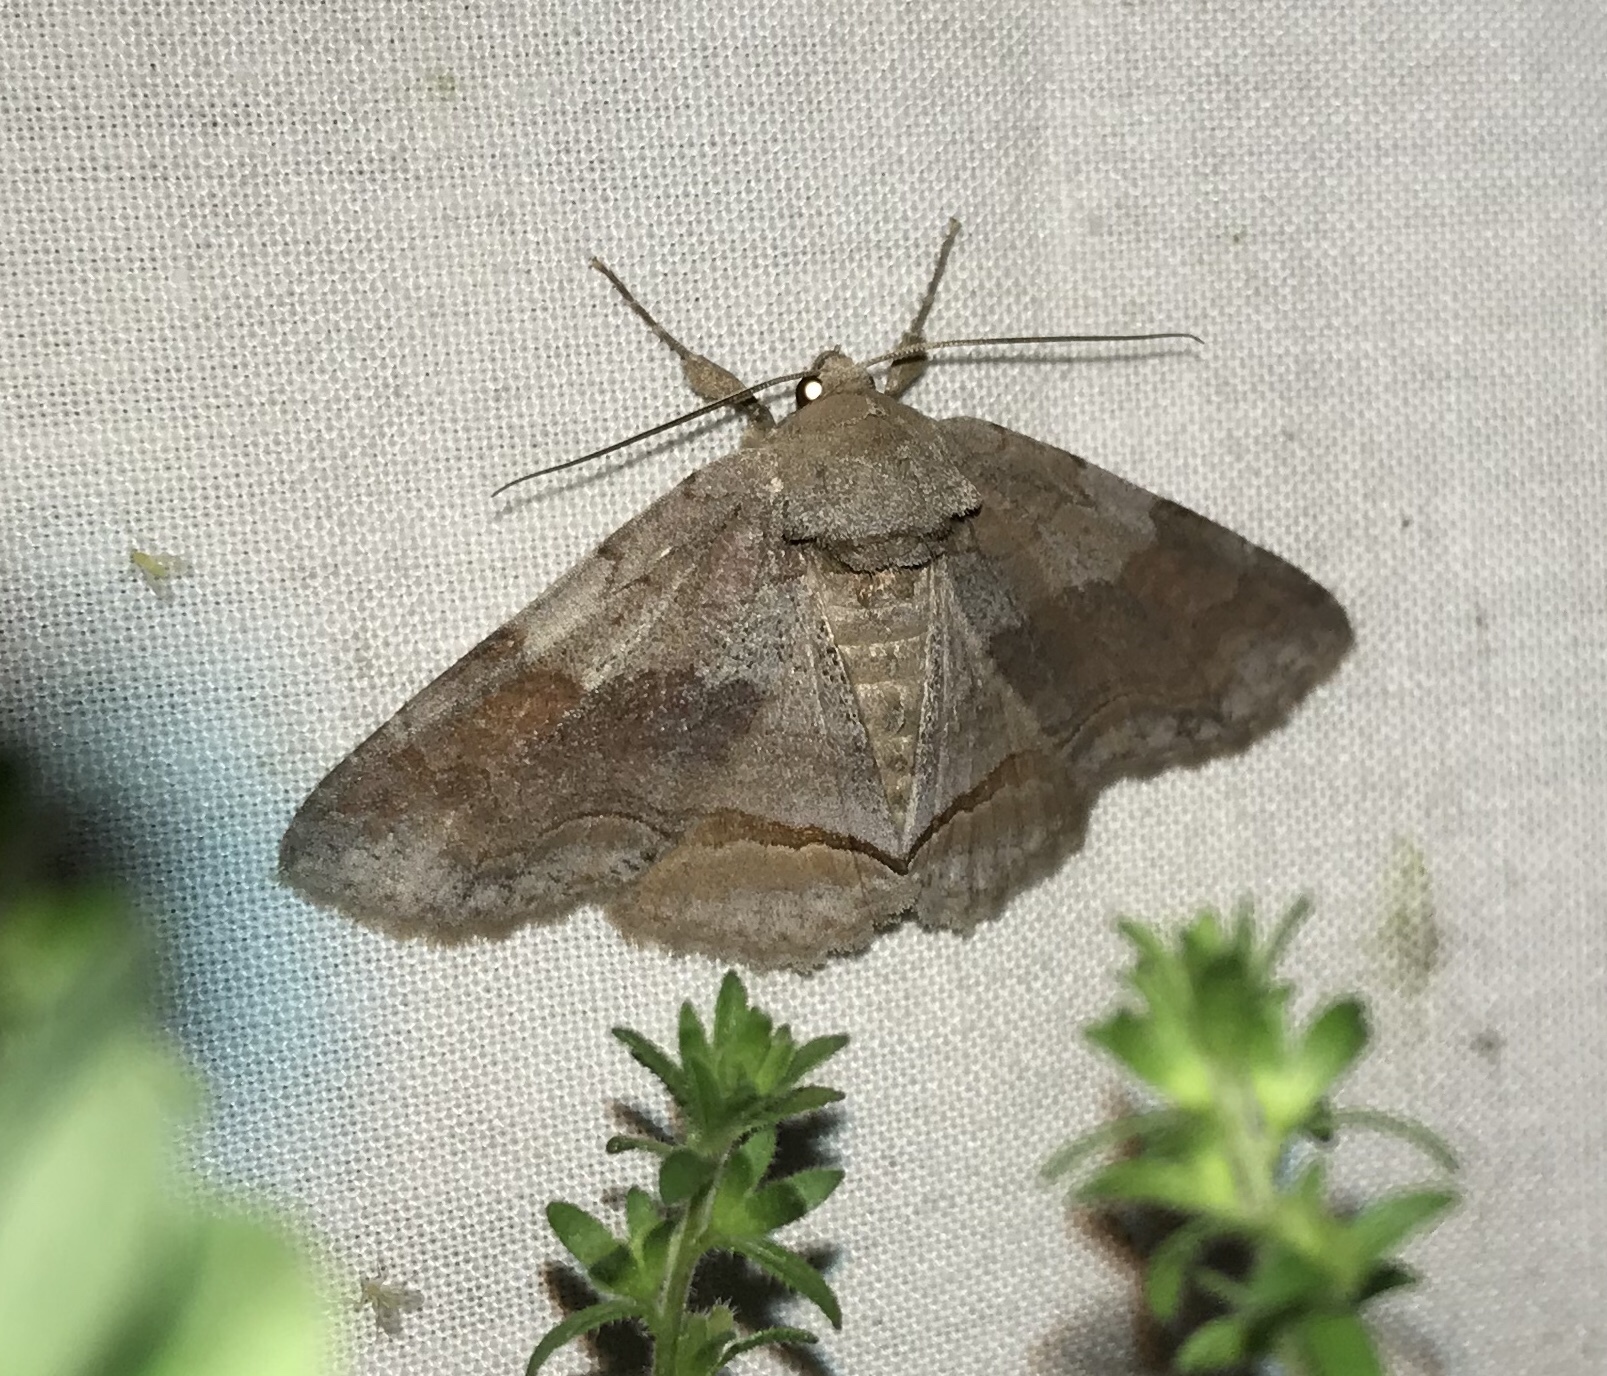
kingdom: Animalia
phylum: Arthropoda
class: Insecta
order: Lepidoptera
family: Erebidae
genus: Zale
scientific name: Zale obliqua
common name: Oblique zale moth
